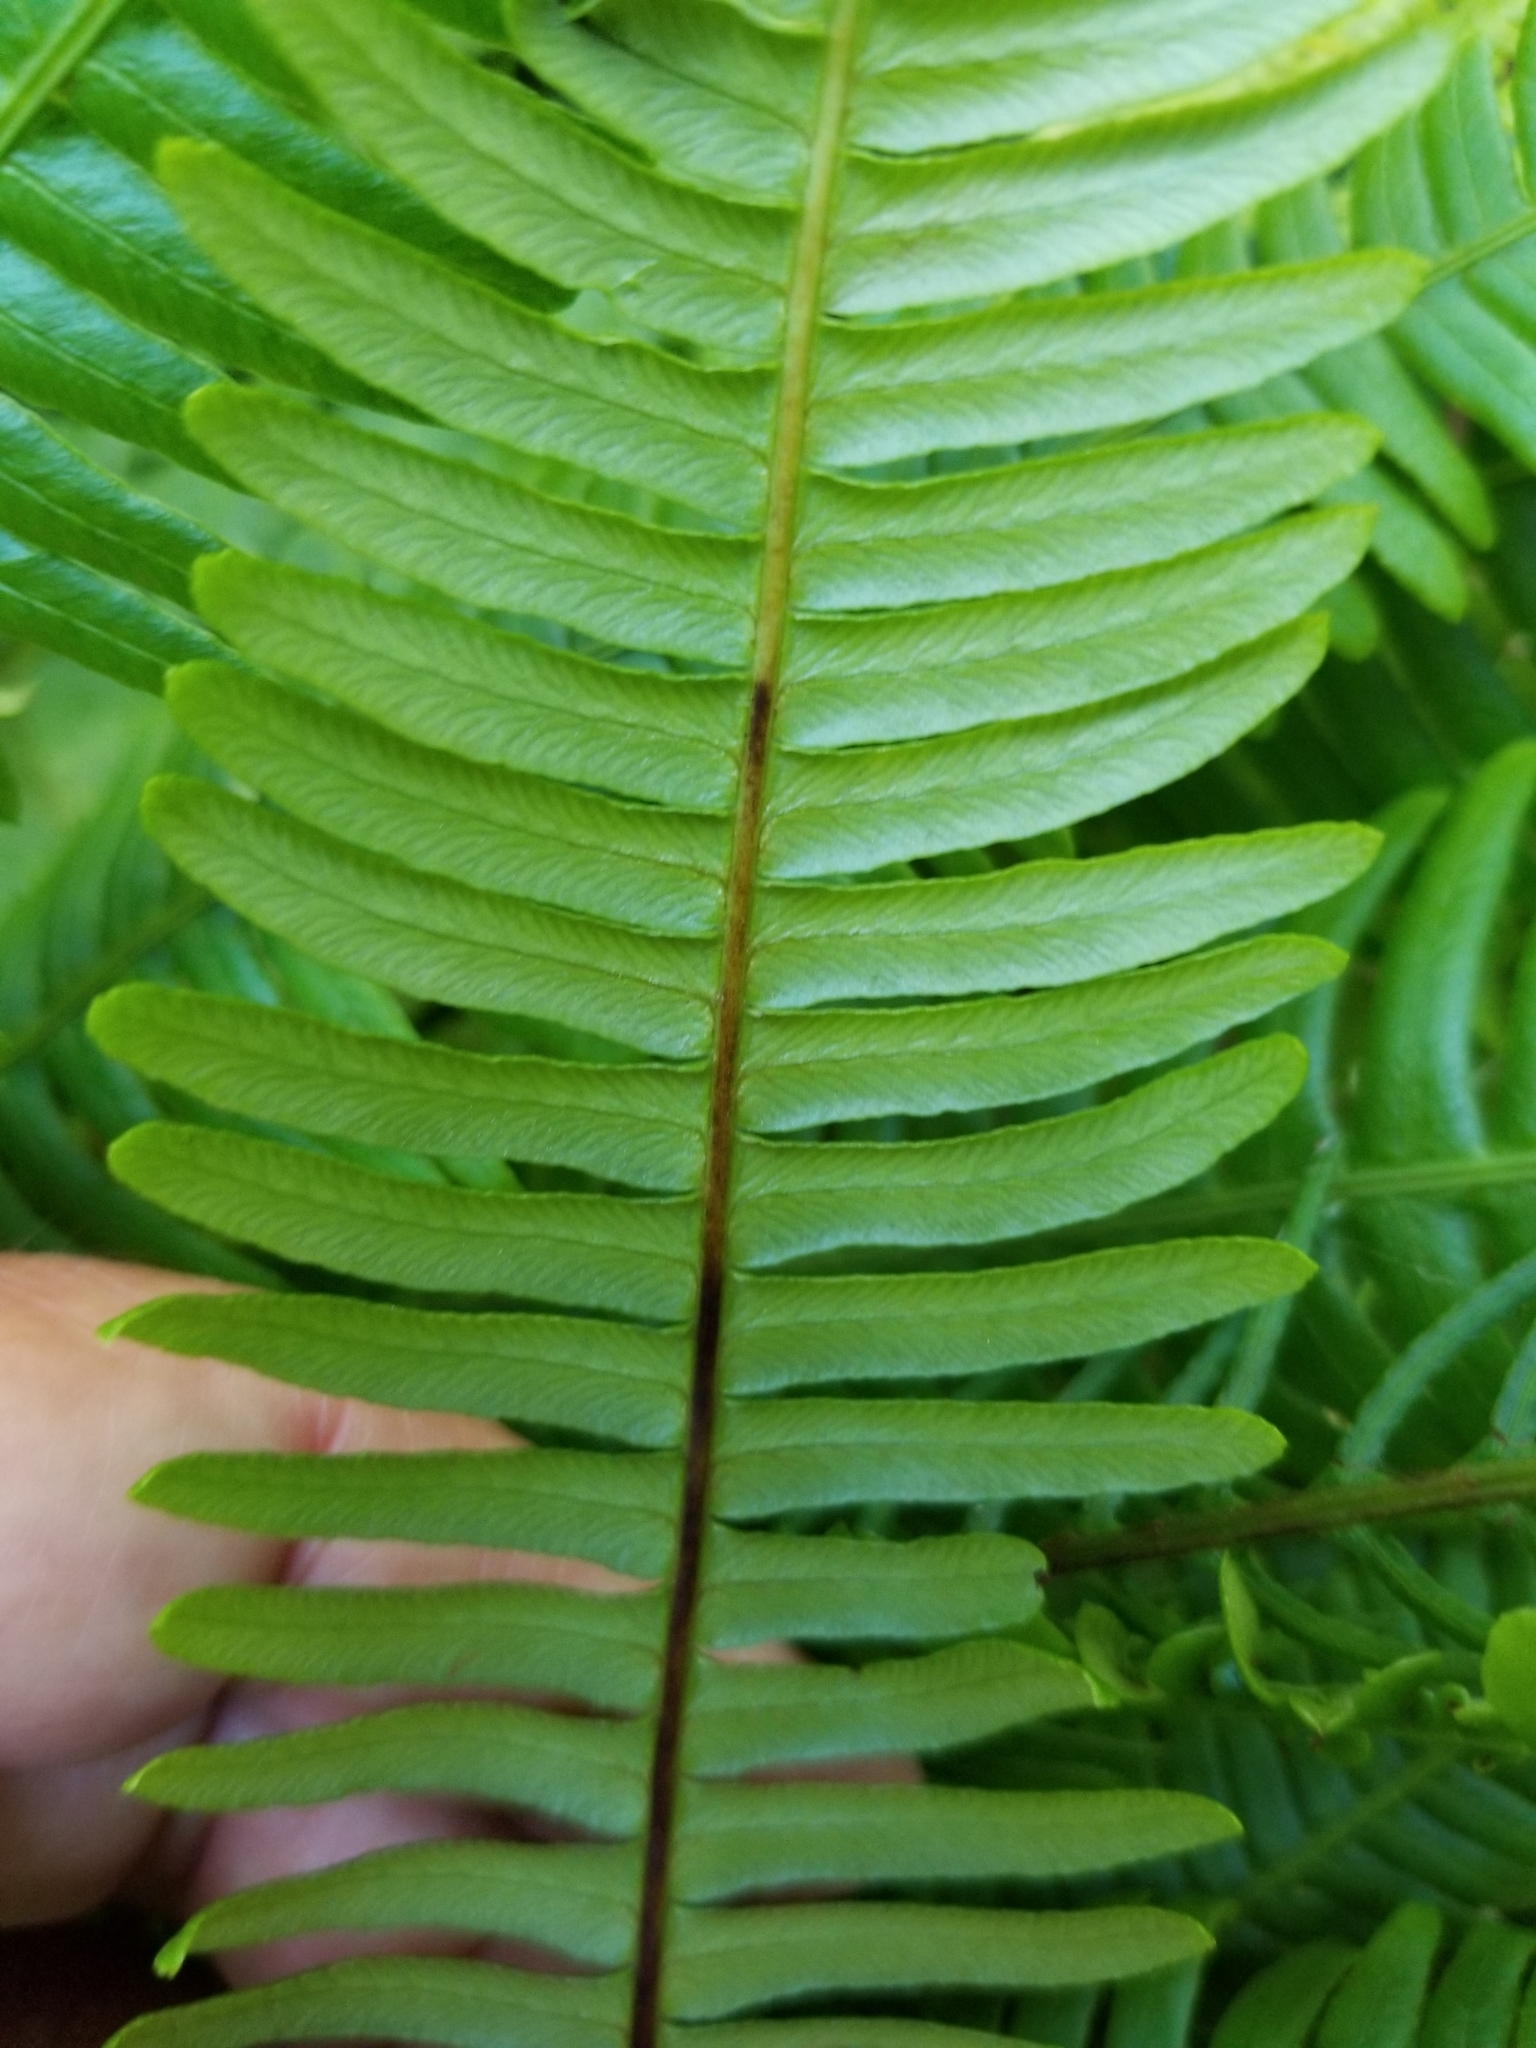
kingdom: Plantae
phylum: Tracheophyta
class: Polypodiopsida
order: Polypodiales
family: Blechnaceae
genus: Struthiopteris
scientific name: Struthiopteris spicant
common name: Deer fern
